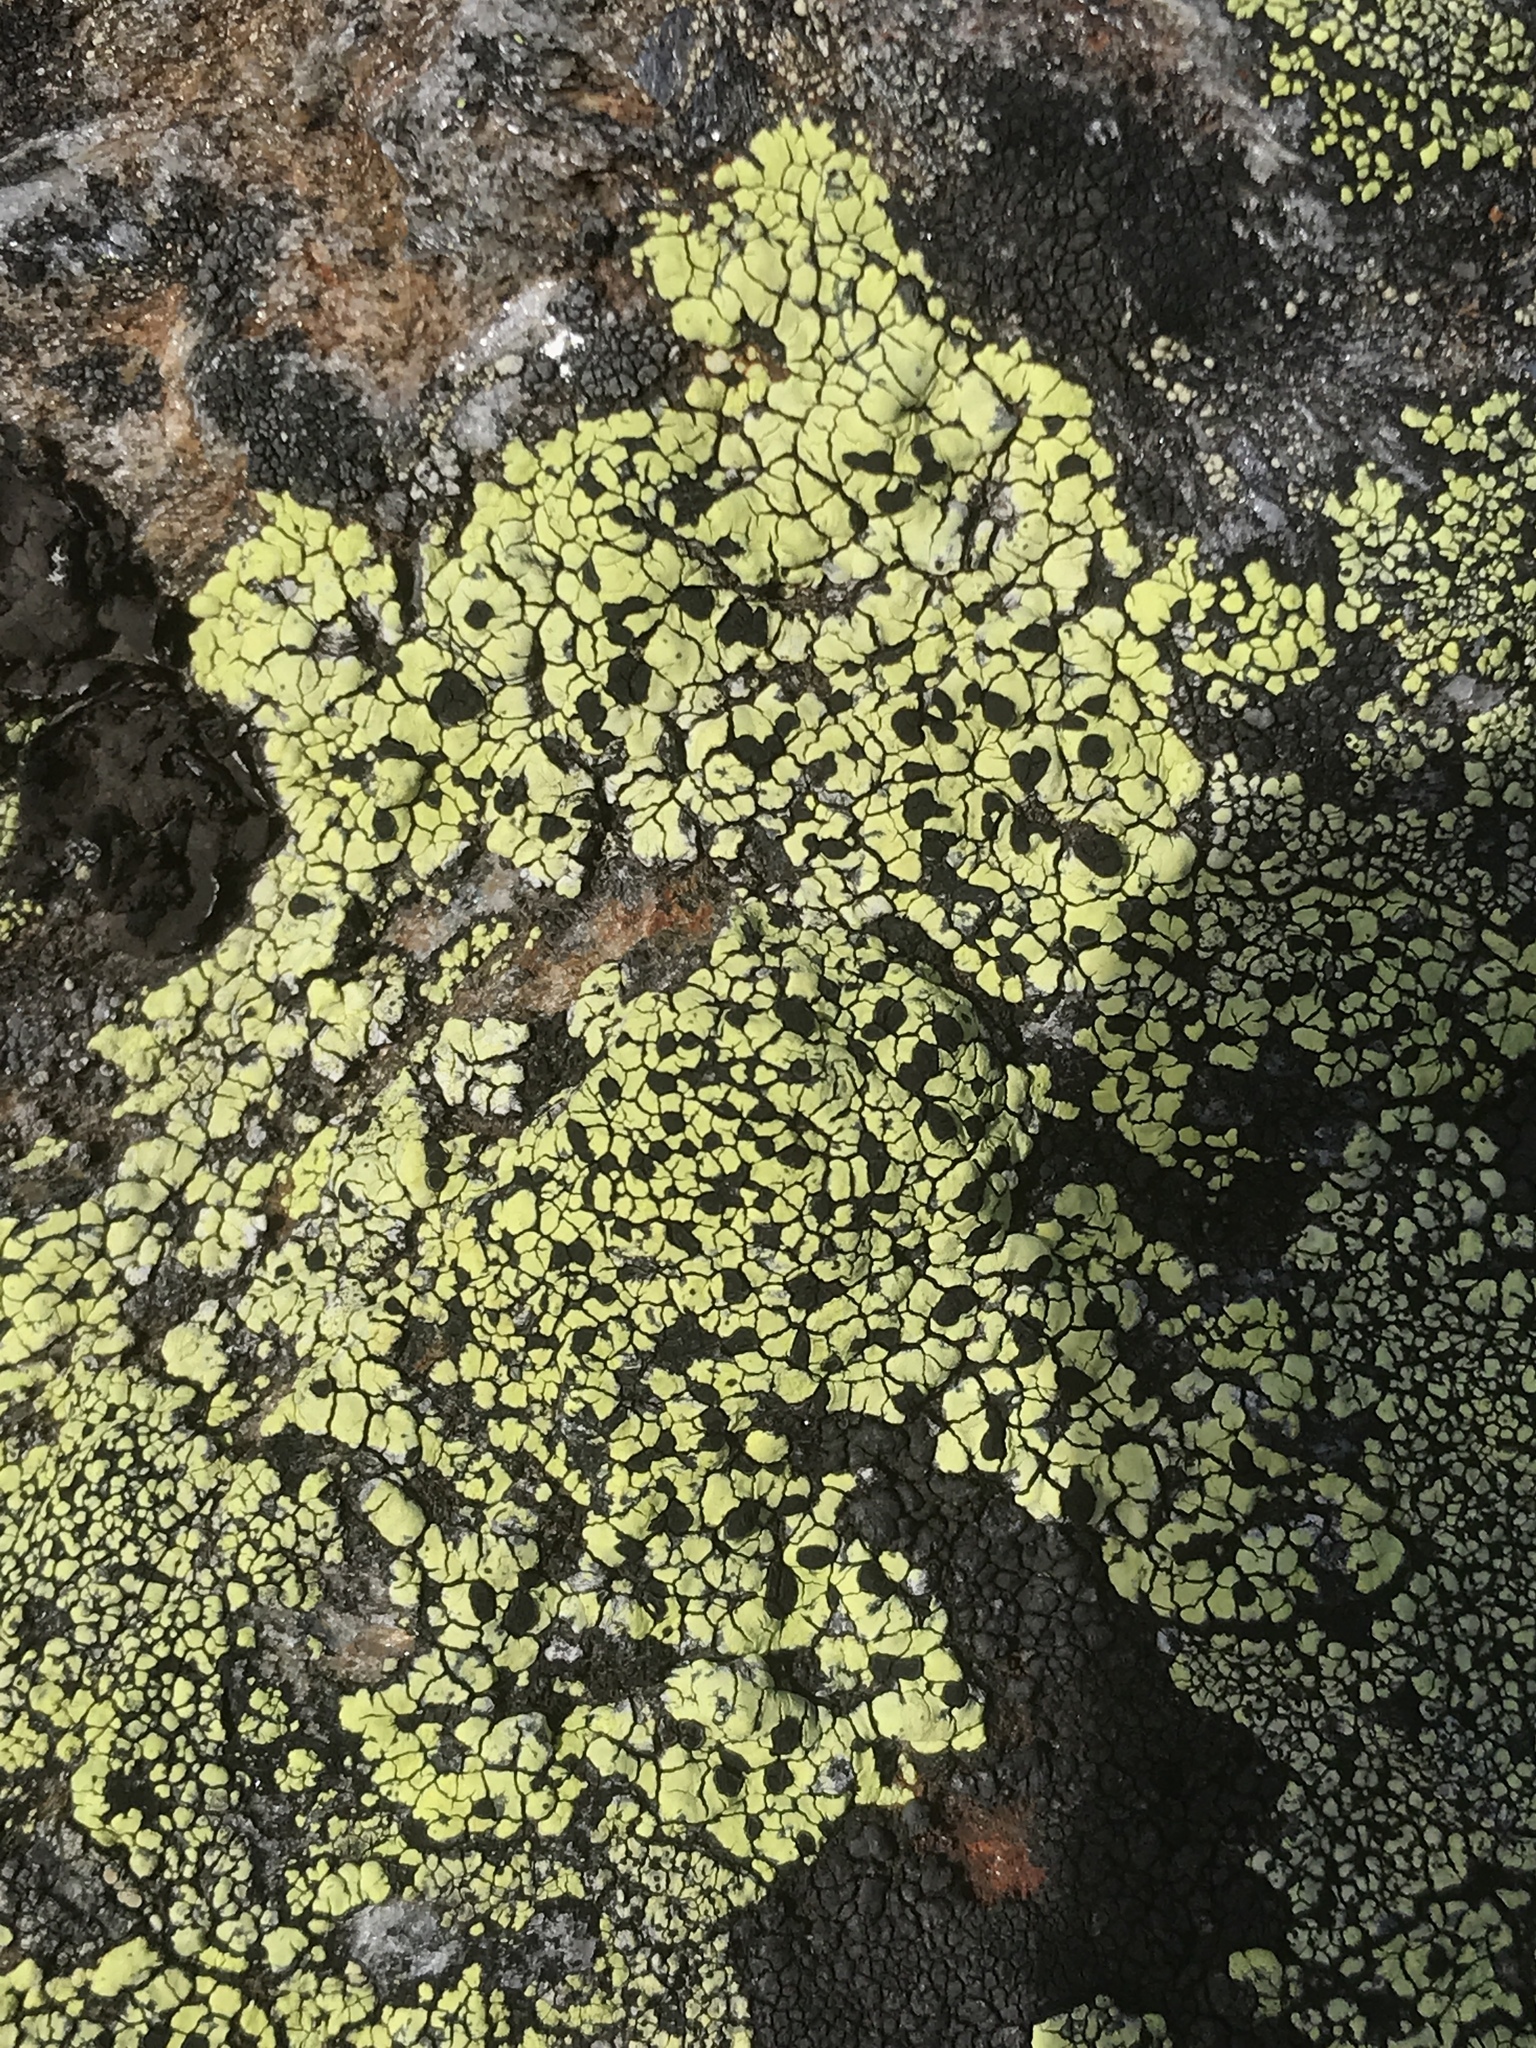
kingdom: Fungi
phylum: Ascomycota
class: Lecanoromycetes
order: Rhizocarpales
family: Rhizocarpaceae
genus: Rhizocarpon
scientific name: Rhizocarpon geographicum
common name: Yellow map lichen
